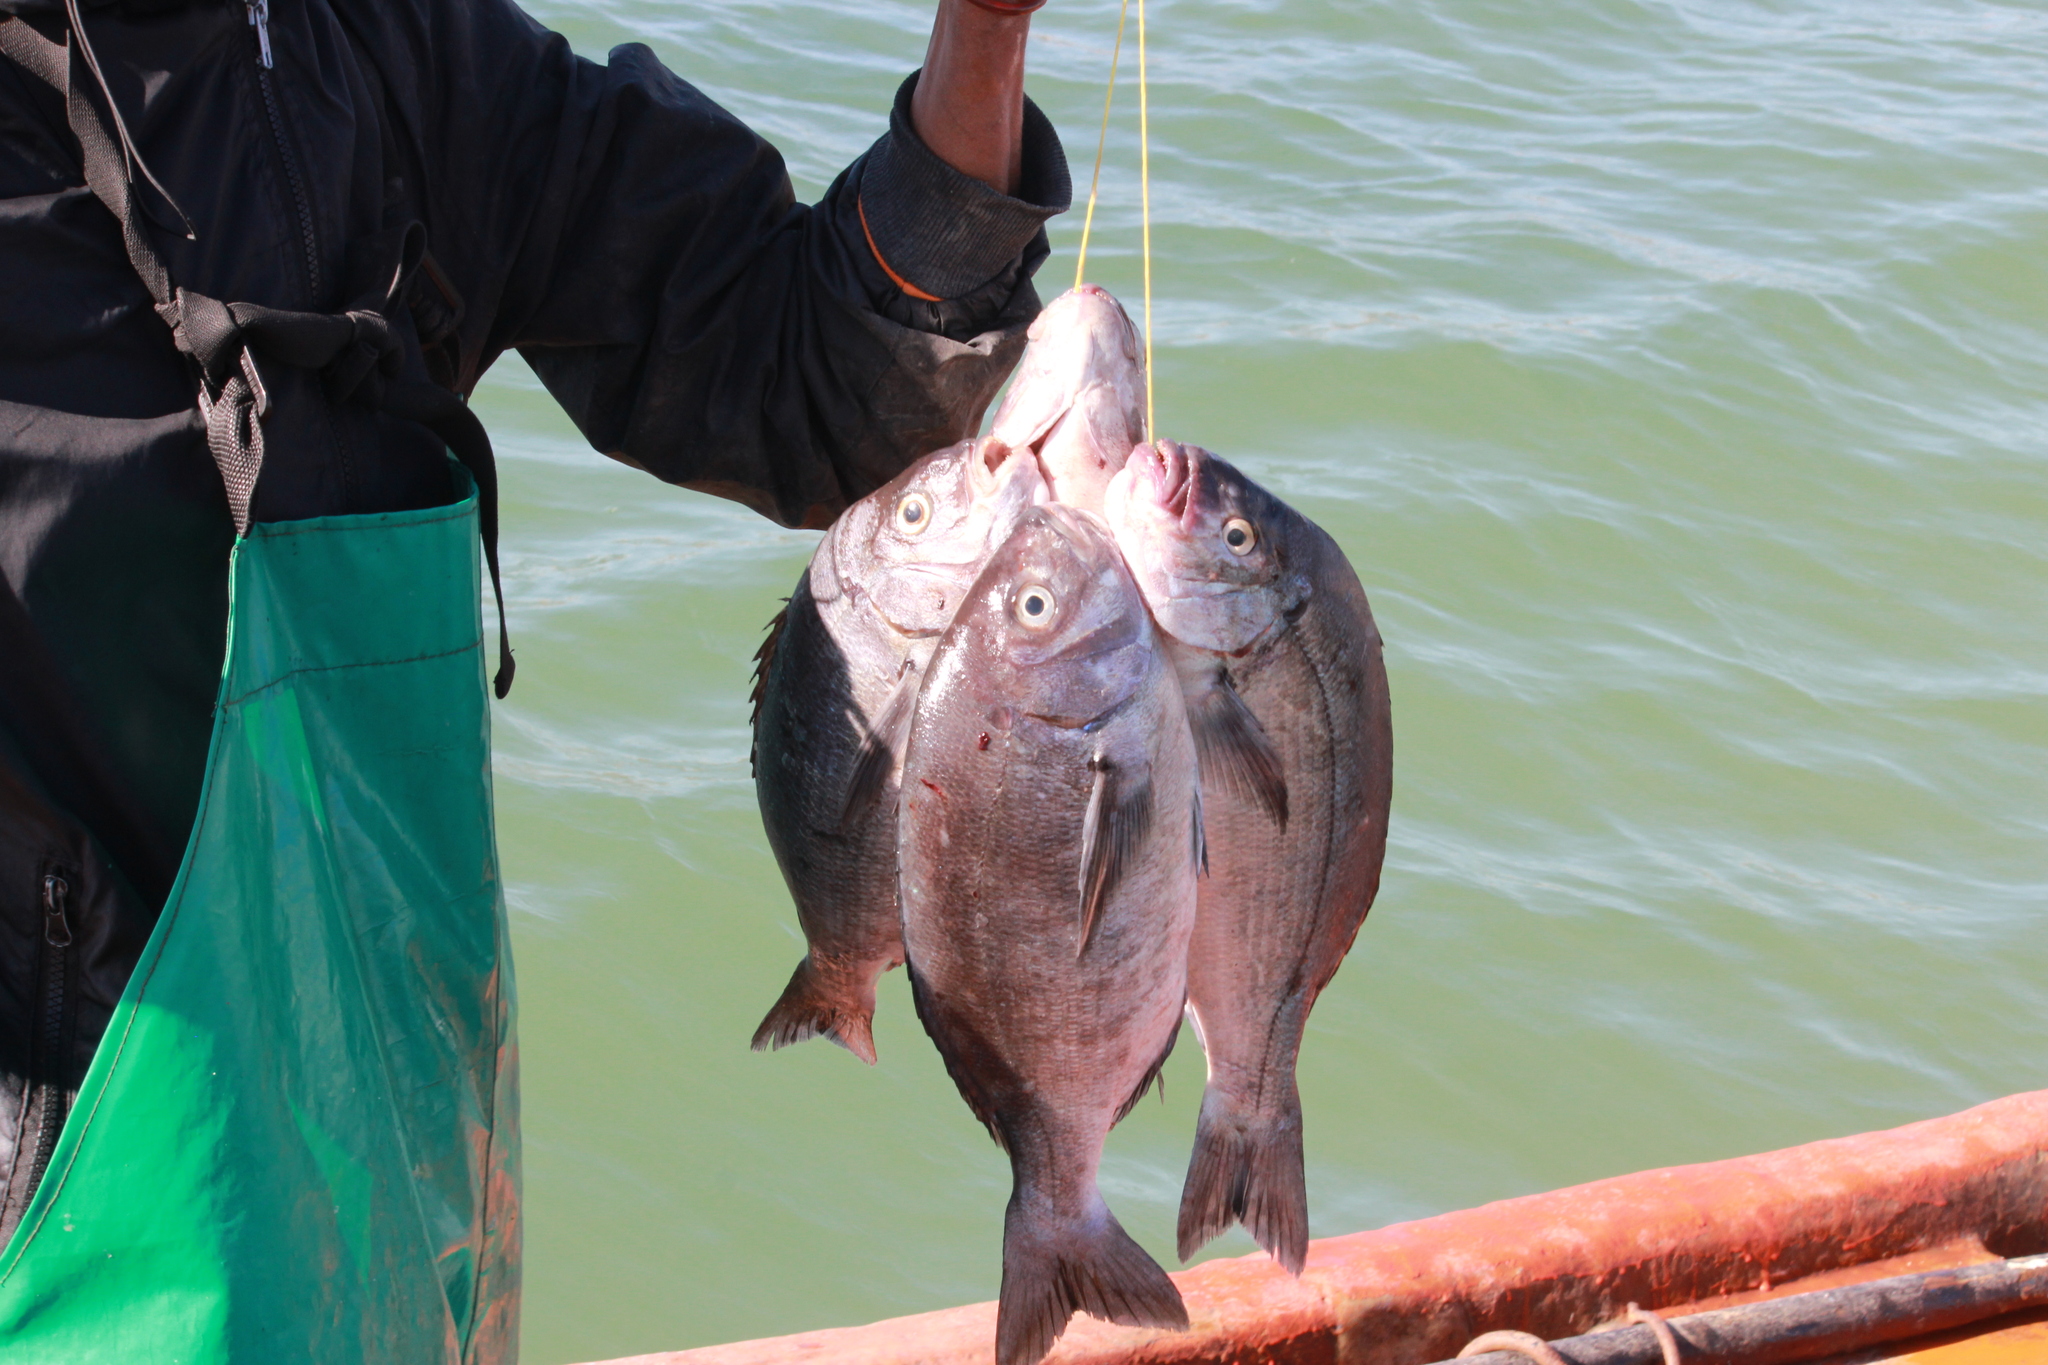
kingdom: Animalia
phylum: Chordata
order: Perciformes
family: Sparidae
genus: Pachymetopon
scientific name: Pachymetopon blochii
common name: Hottentot
